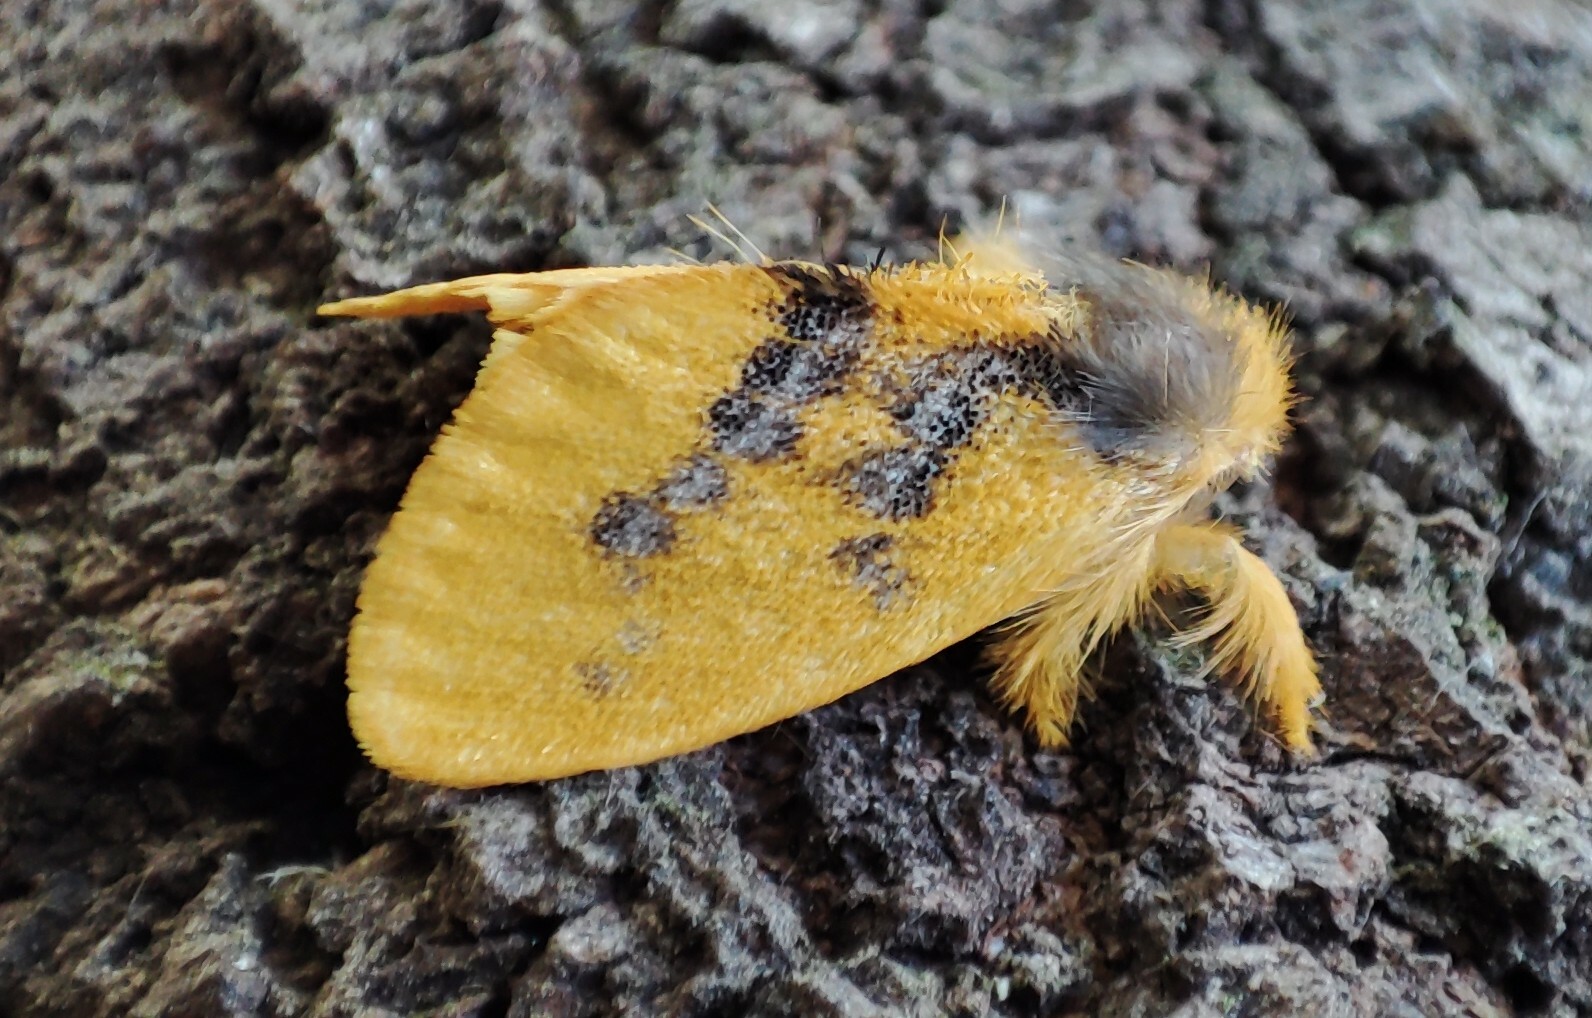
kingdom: Animalia
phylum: Arthropoda
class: Insecta
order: Lepidoptera
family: Erebidae
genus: Euproctis
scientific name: Euproctis aethiopica
